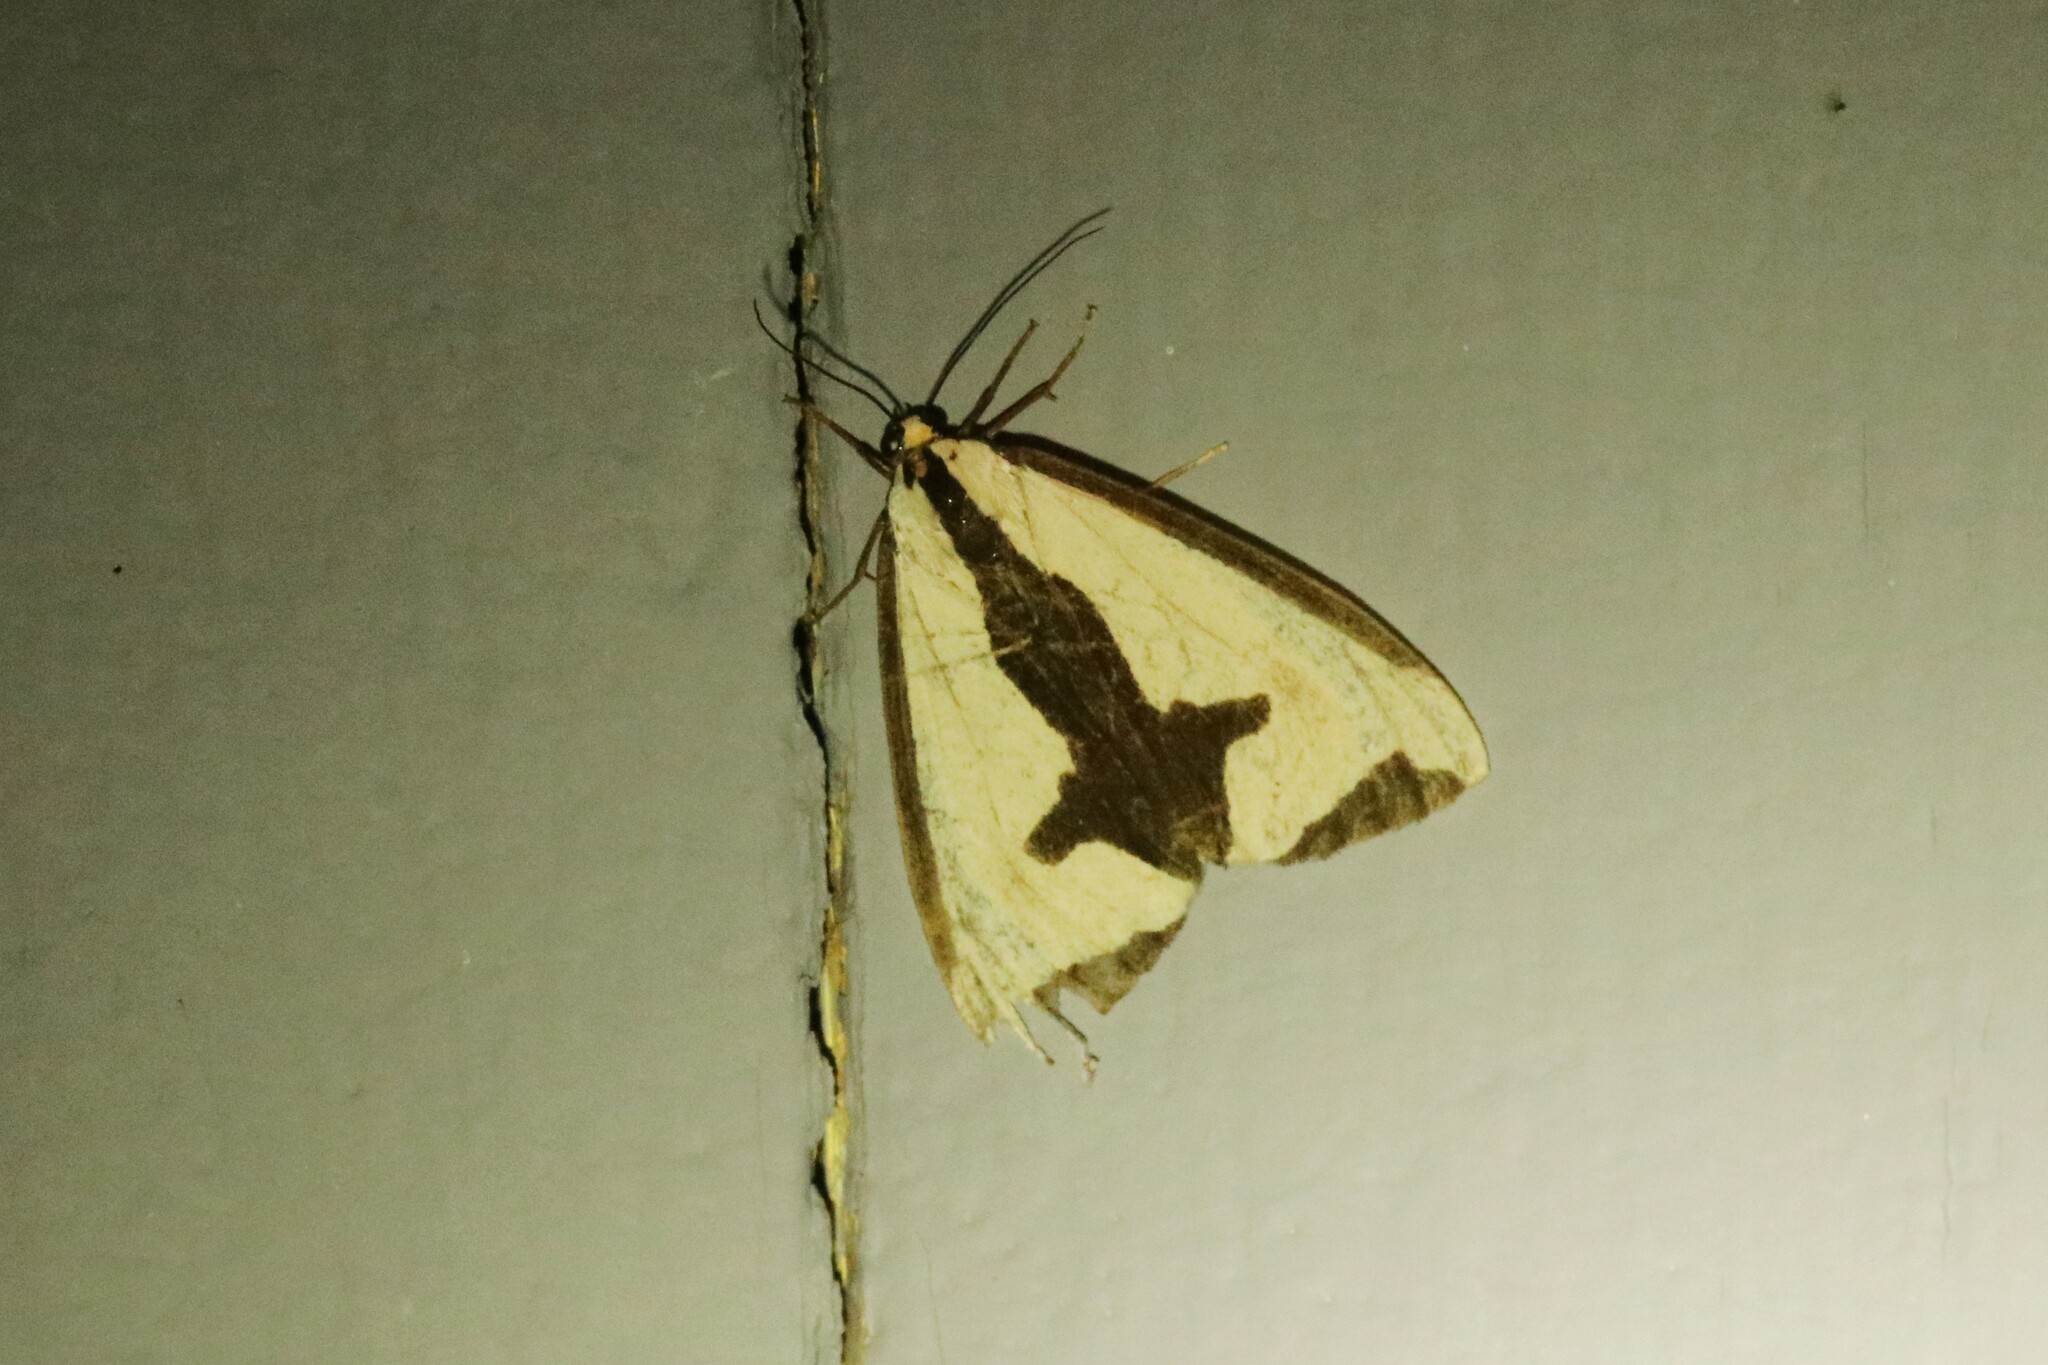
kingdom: Animalia
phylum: Arthropoda
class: Insecta
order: Lepidoptera
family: Erebidae
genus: Haploa
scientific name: Haploa clymene
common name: Clymene moth
